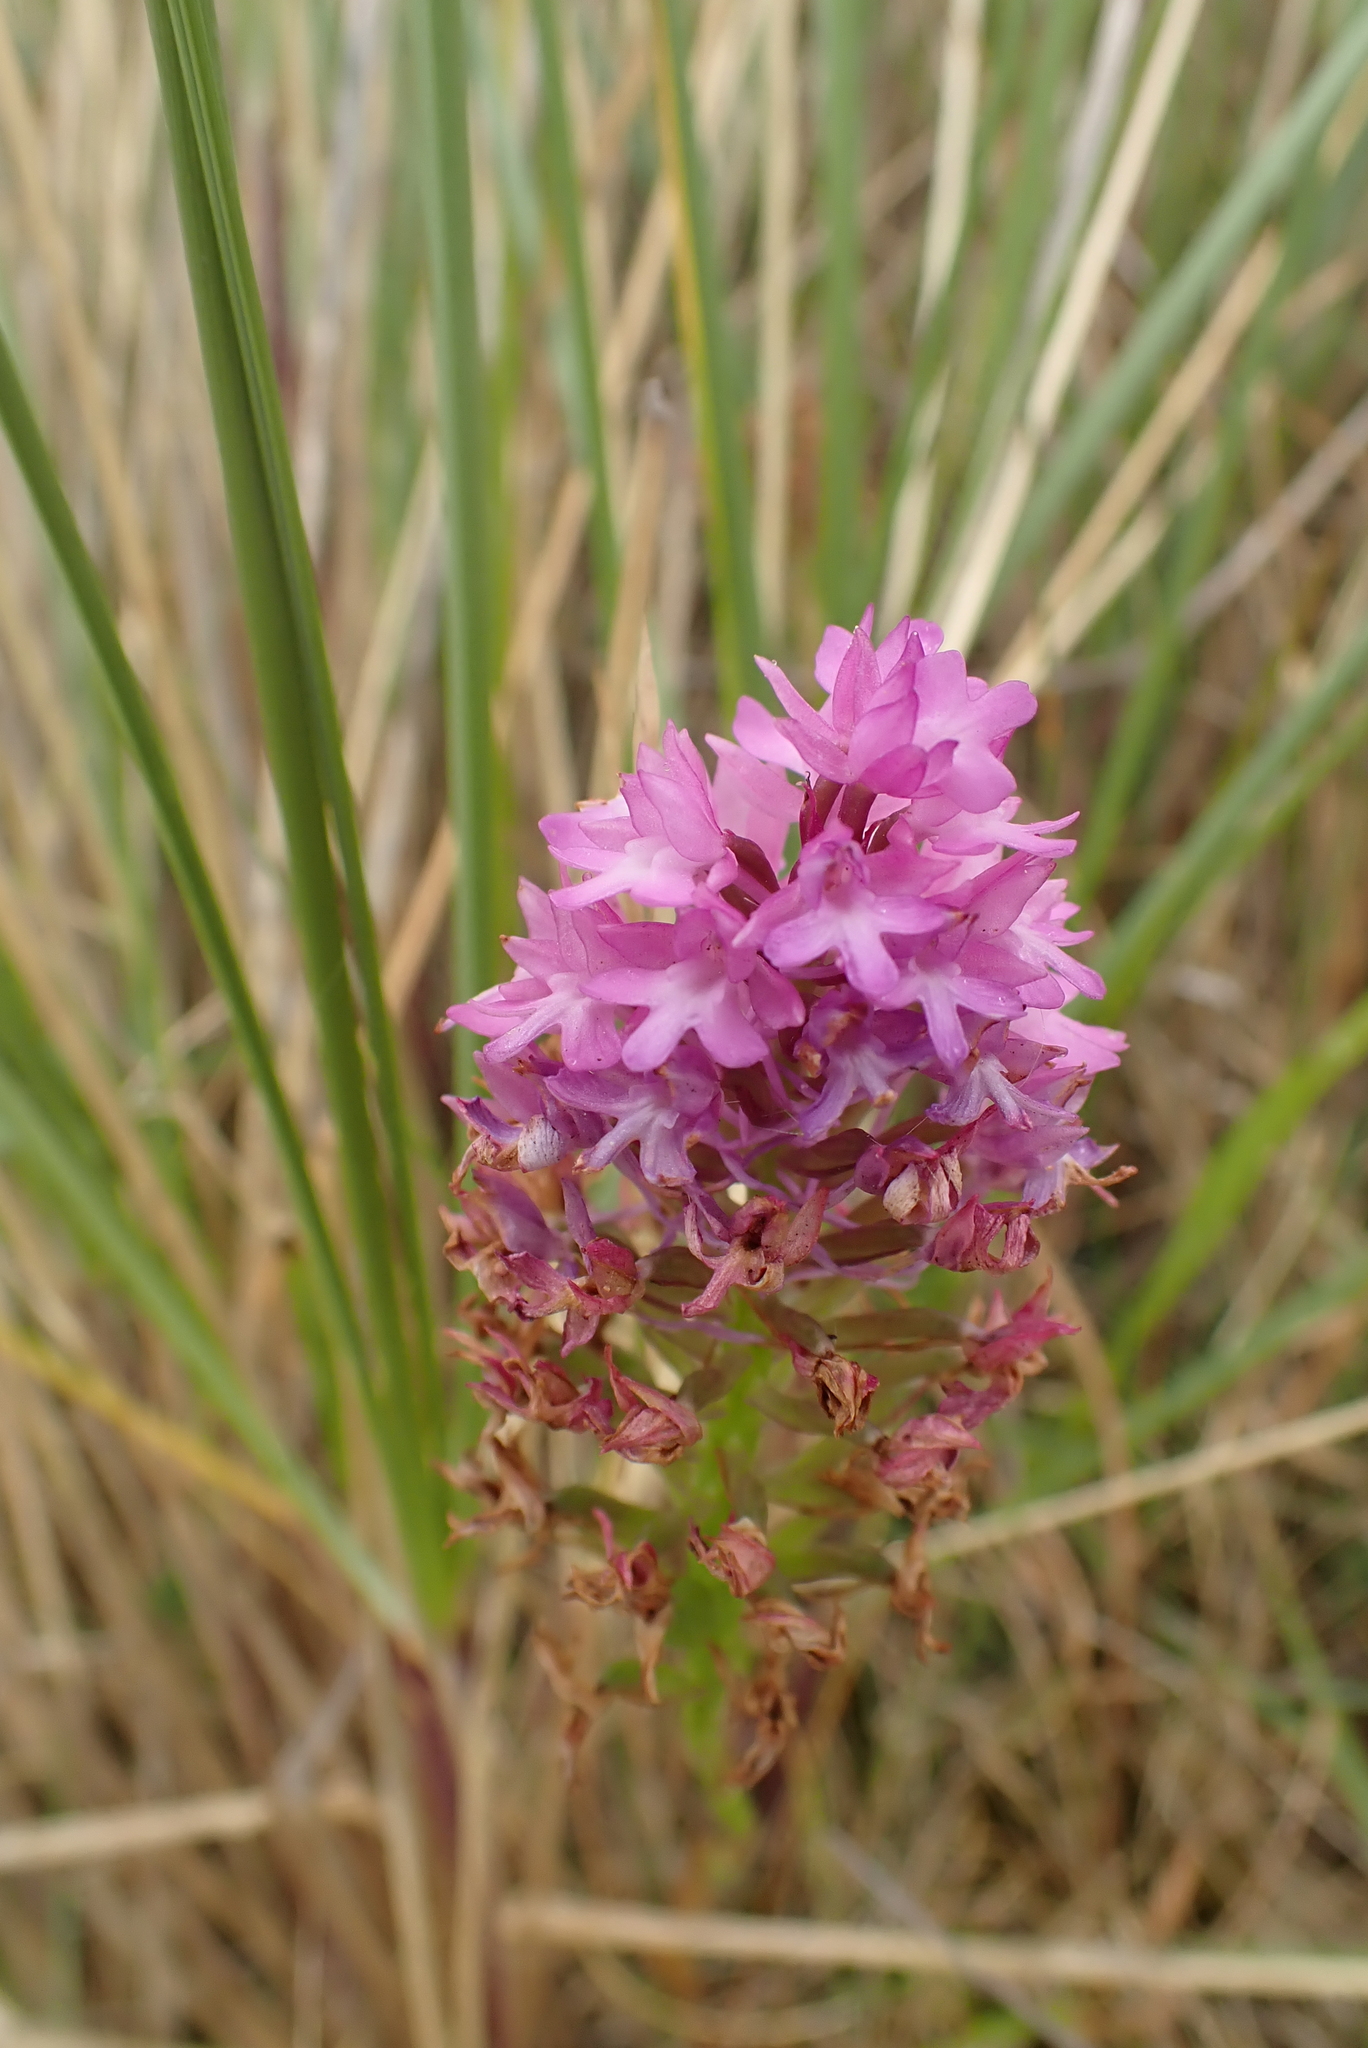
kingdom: Plantae
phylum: Tracheophyta
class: Liliopsida
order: Asparagales
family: Orchidaceae
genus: Anacamptis
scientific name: Anacamptis pyramidalis
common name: Pyramidal orchid
